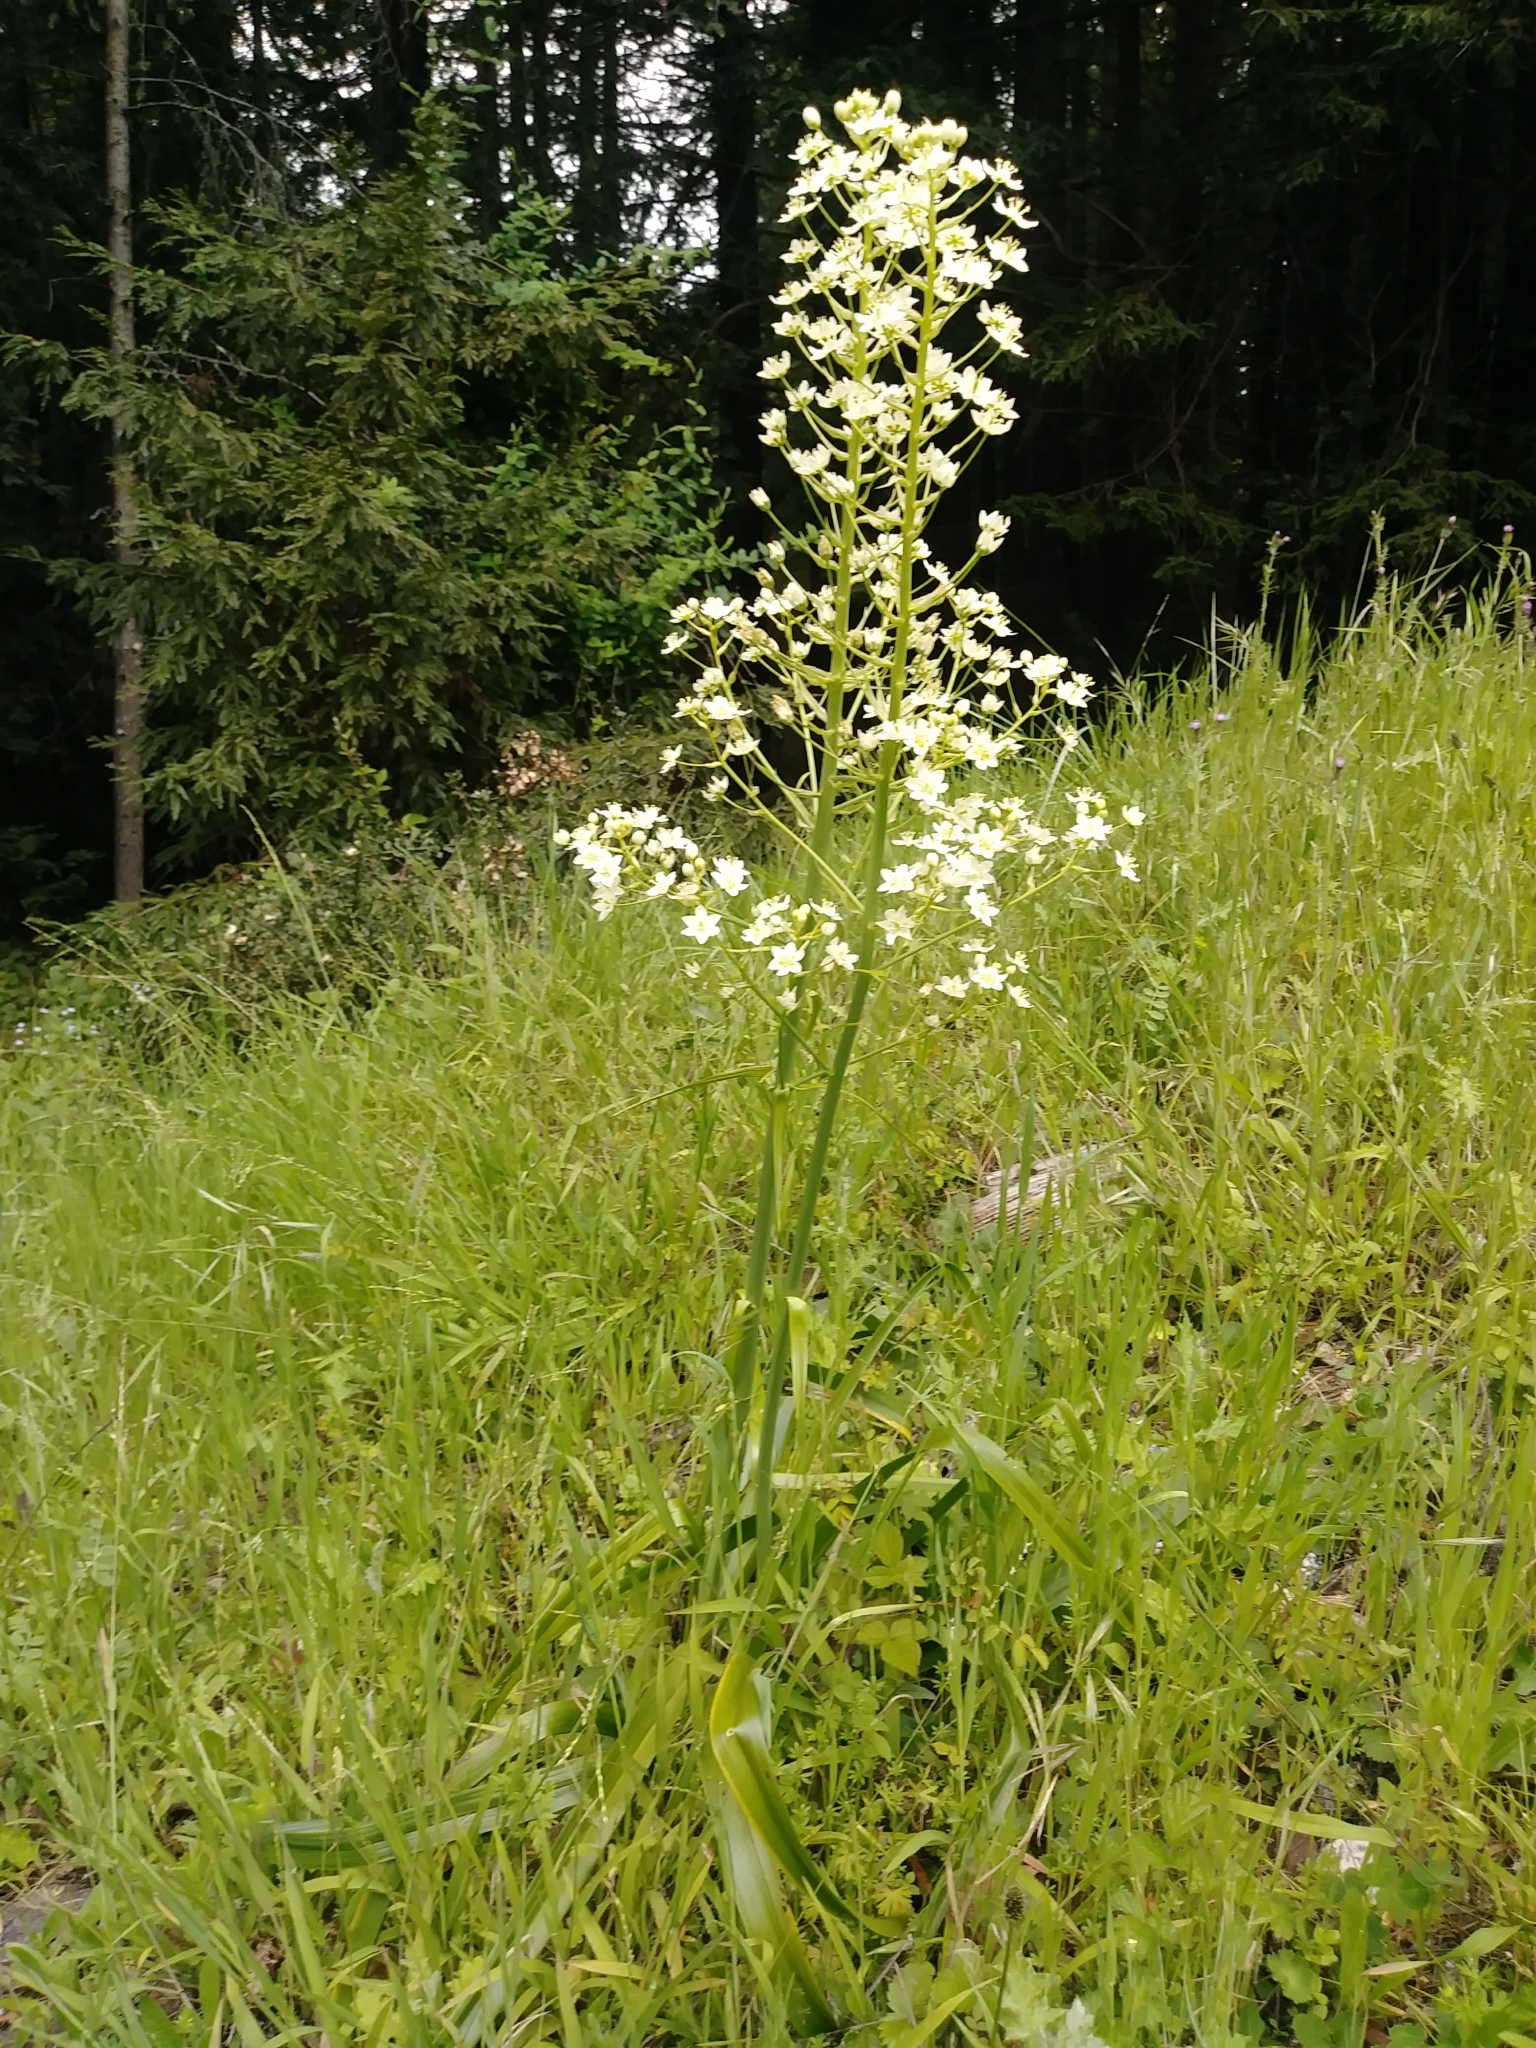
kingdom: Plantae
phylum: Tracheophyta
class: Liliopsida
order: Liliales
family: Melanthiaceae
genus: Toxicoscordion
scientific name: Toxicoscordion fremontii
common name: Fremont's death camas
